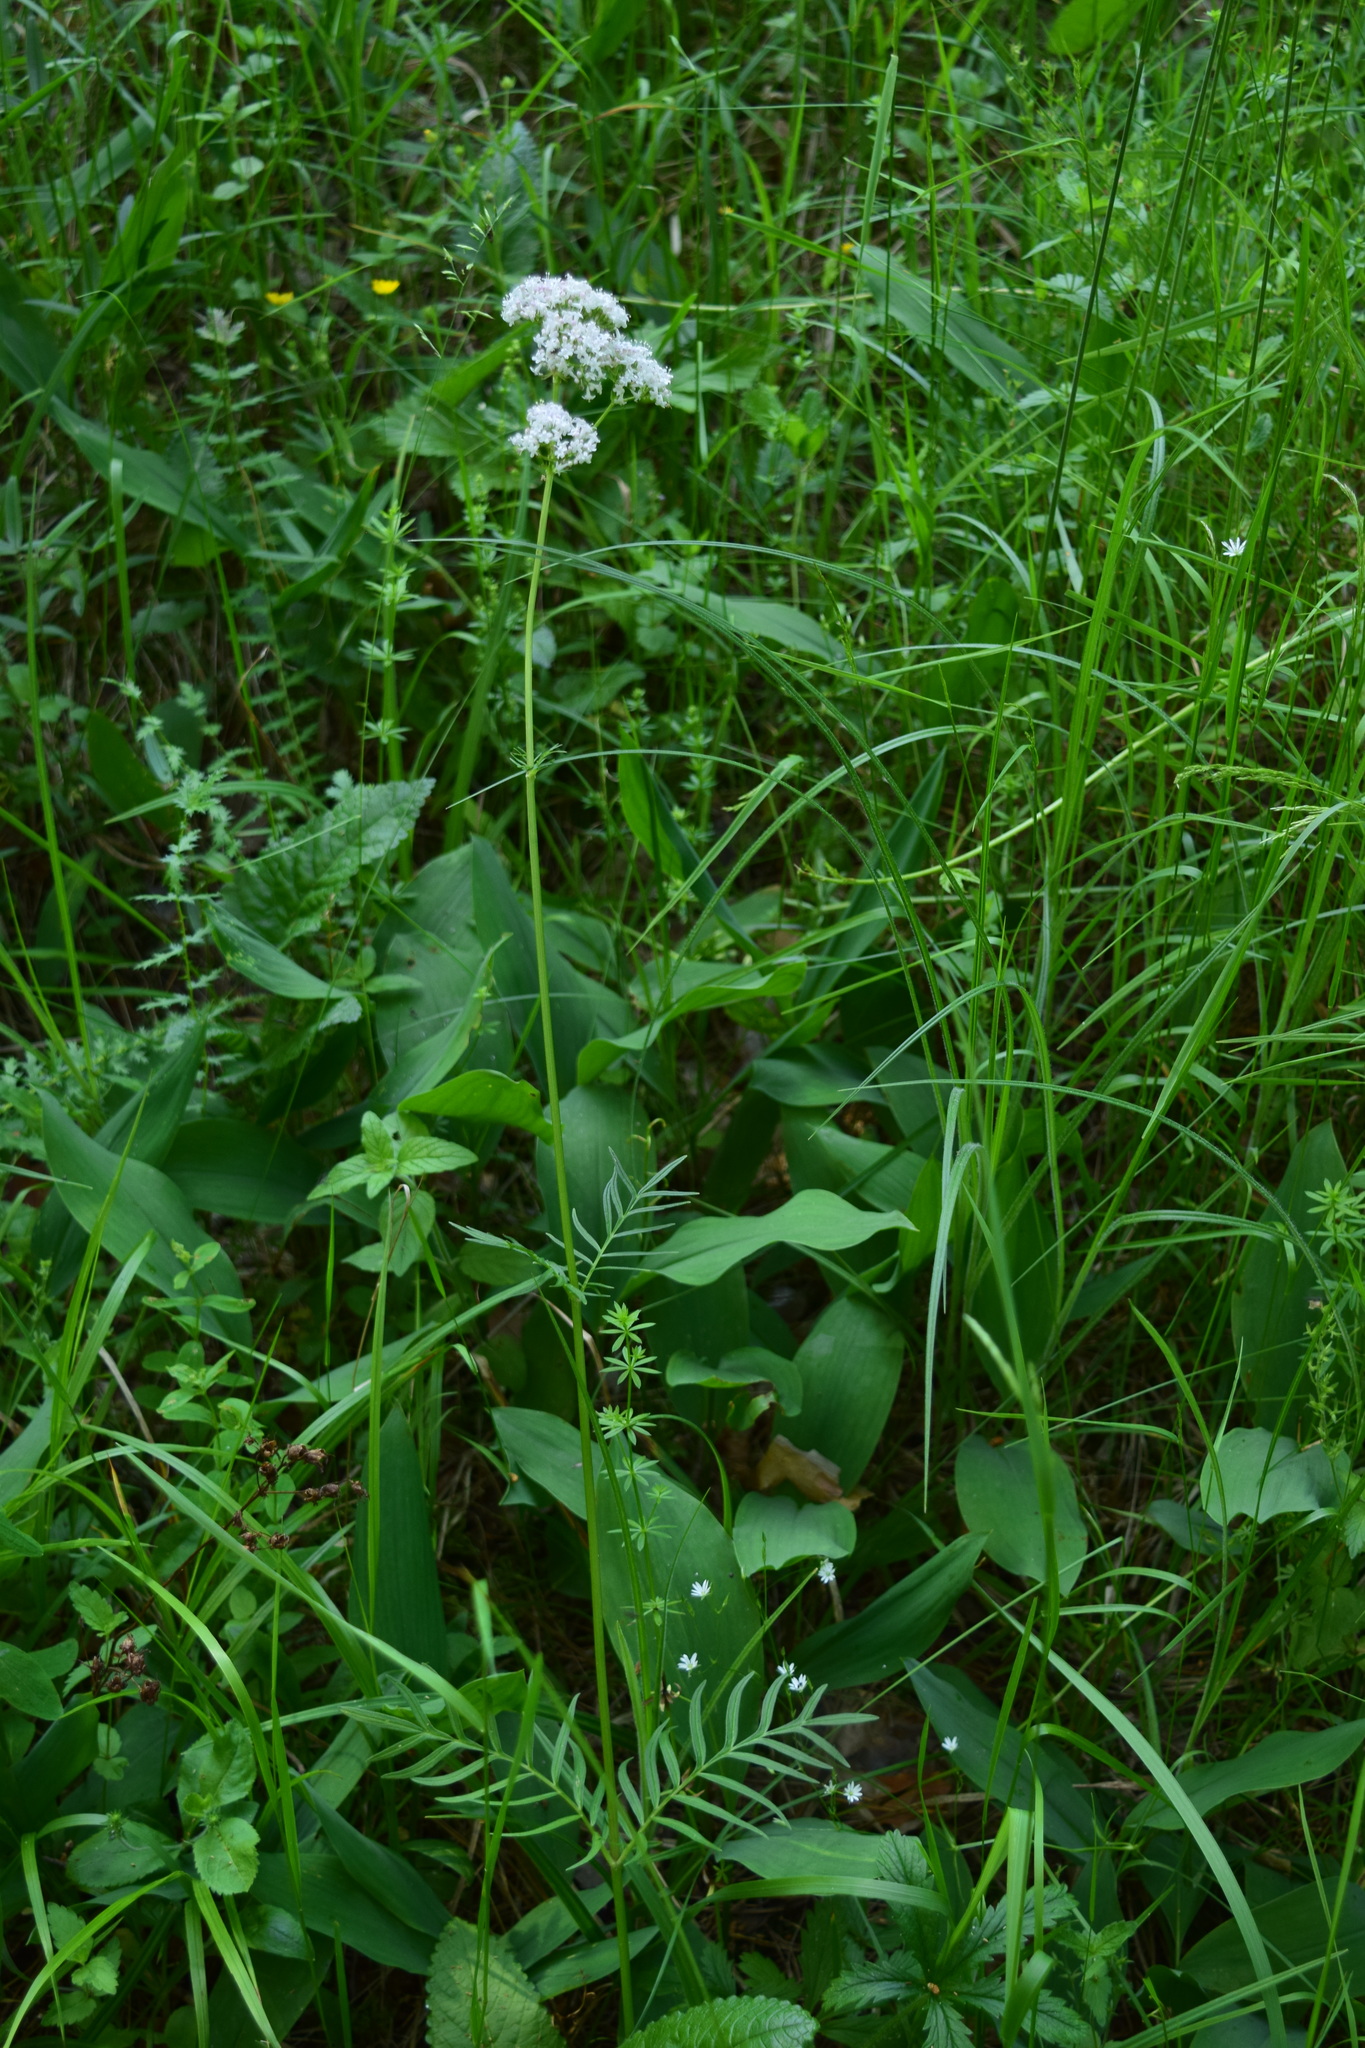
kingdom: Plantae
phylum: Tracheophyta
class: Magnoliopsida
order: Dipsacales
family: Caprifoliaceae
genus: Valeriana
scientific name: Valeriana officinalis
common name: Common valerian
